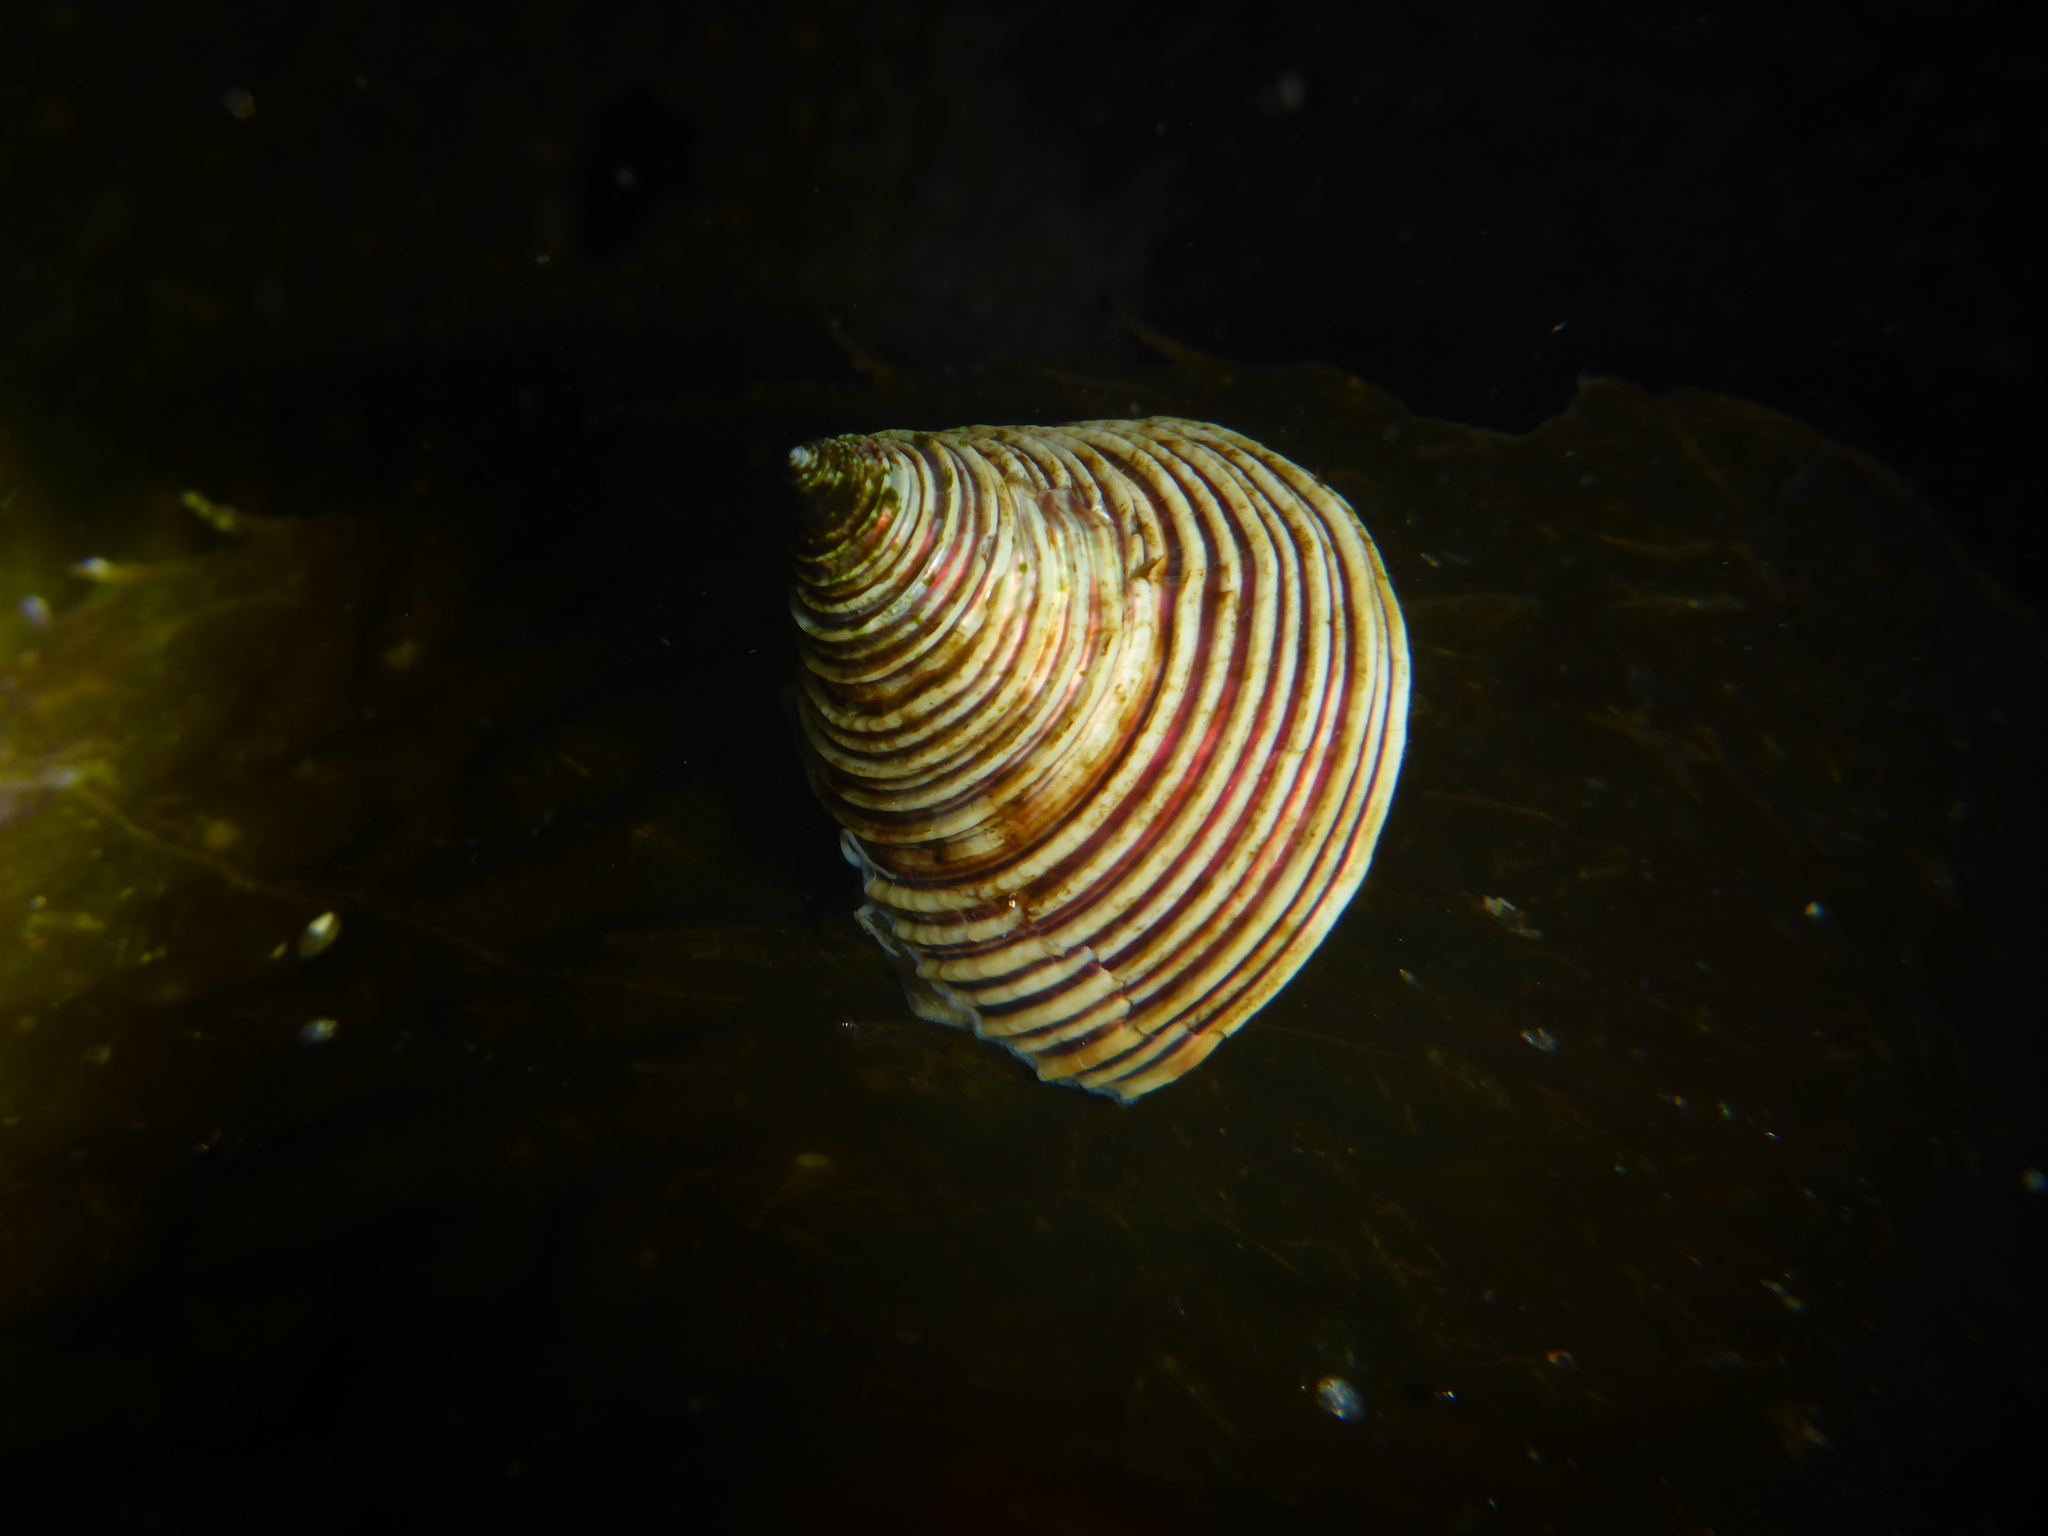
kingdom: Animalia
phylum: Mollusca
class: Gastropoda
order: Trochida
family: Calliostomatidae
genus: Calliostoma
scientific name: Calliostoma canaliculatum
